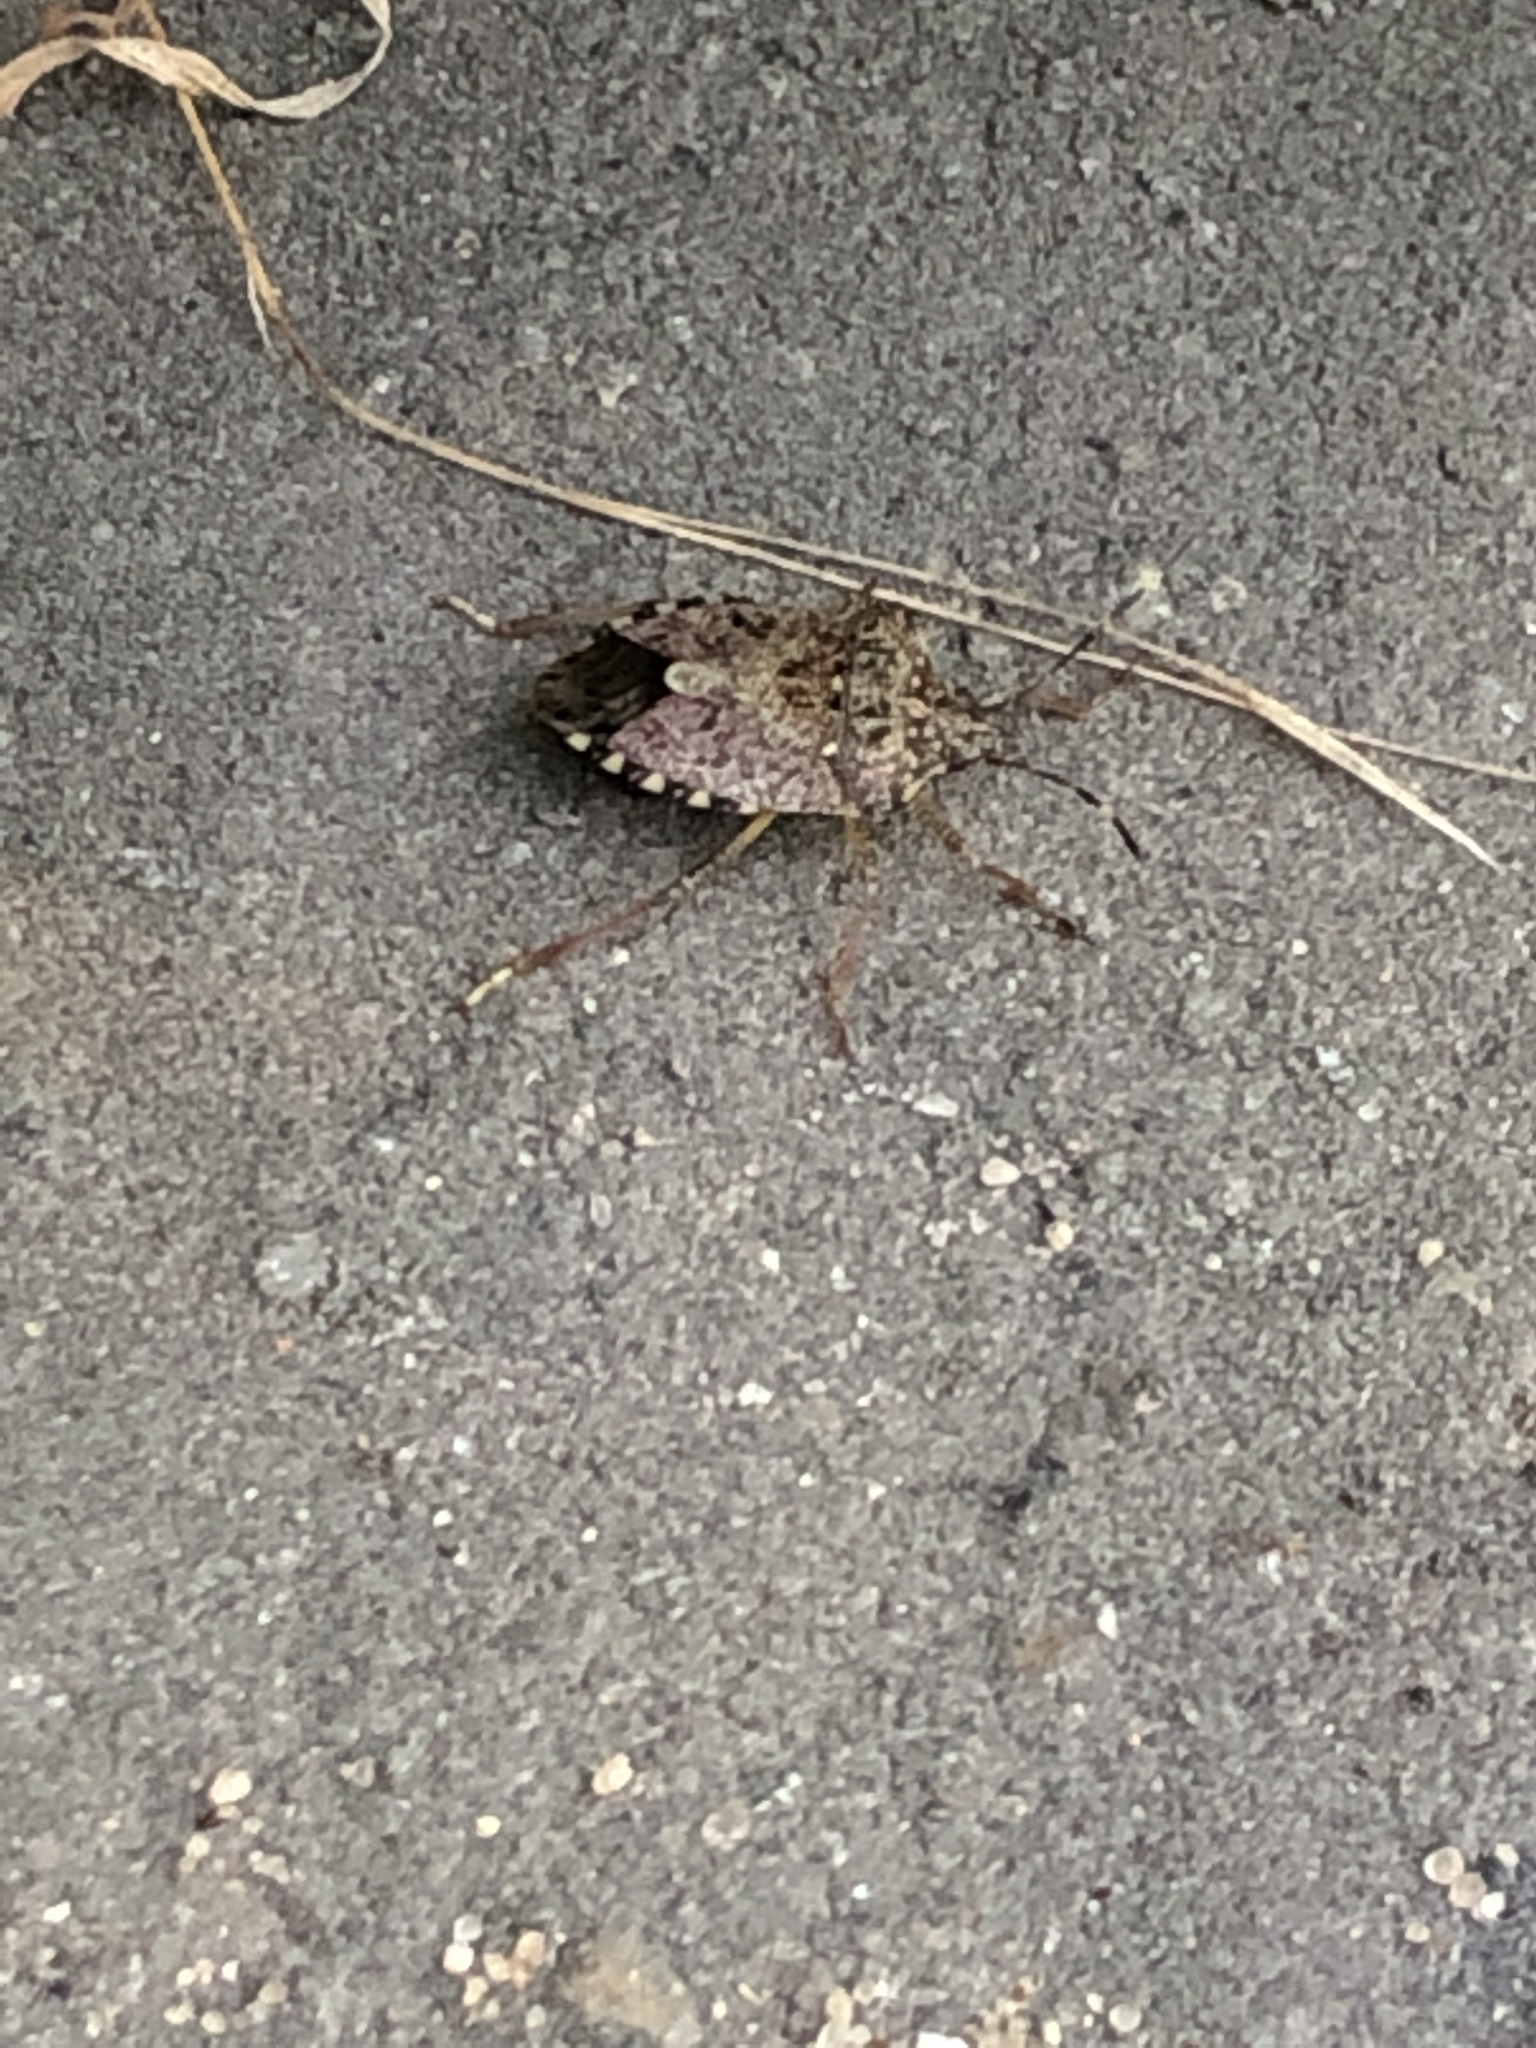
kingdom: Animalia
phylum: Arthropoda
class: Insecta
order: Hemiptera
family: Pentatomidae
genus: Halyomorpha
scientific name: Halyomorpha halys
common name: Brown marmorated stink bug
